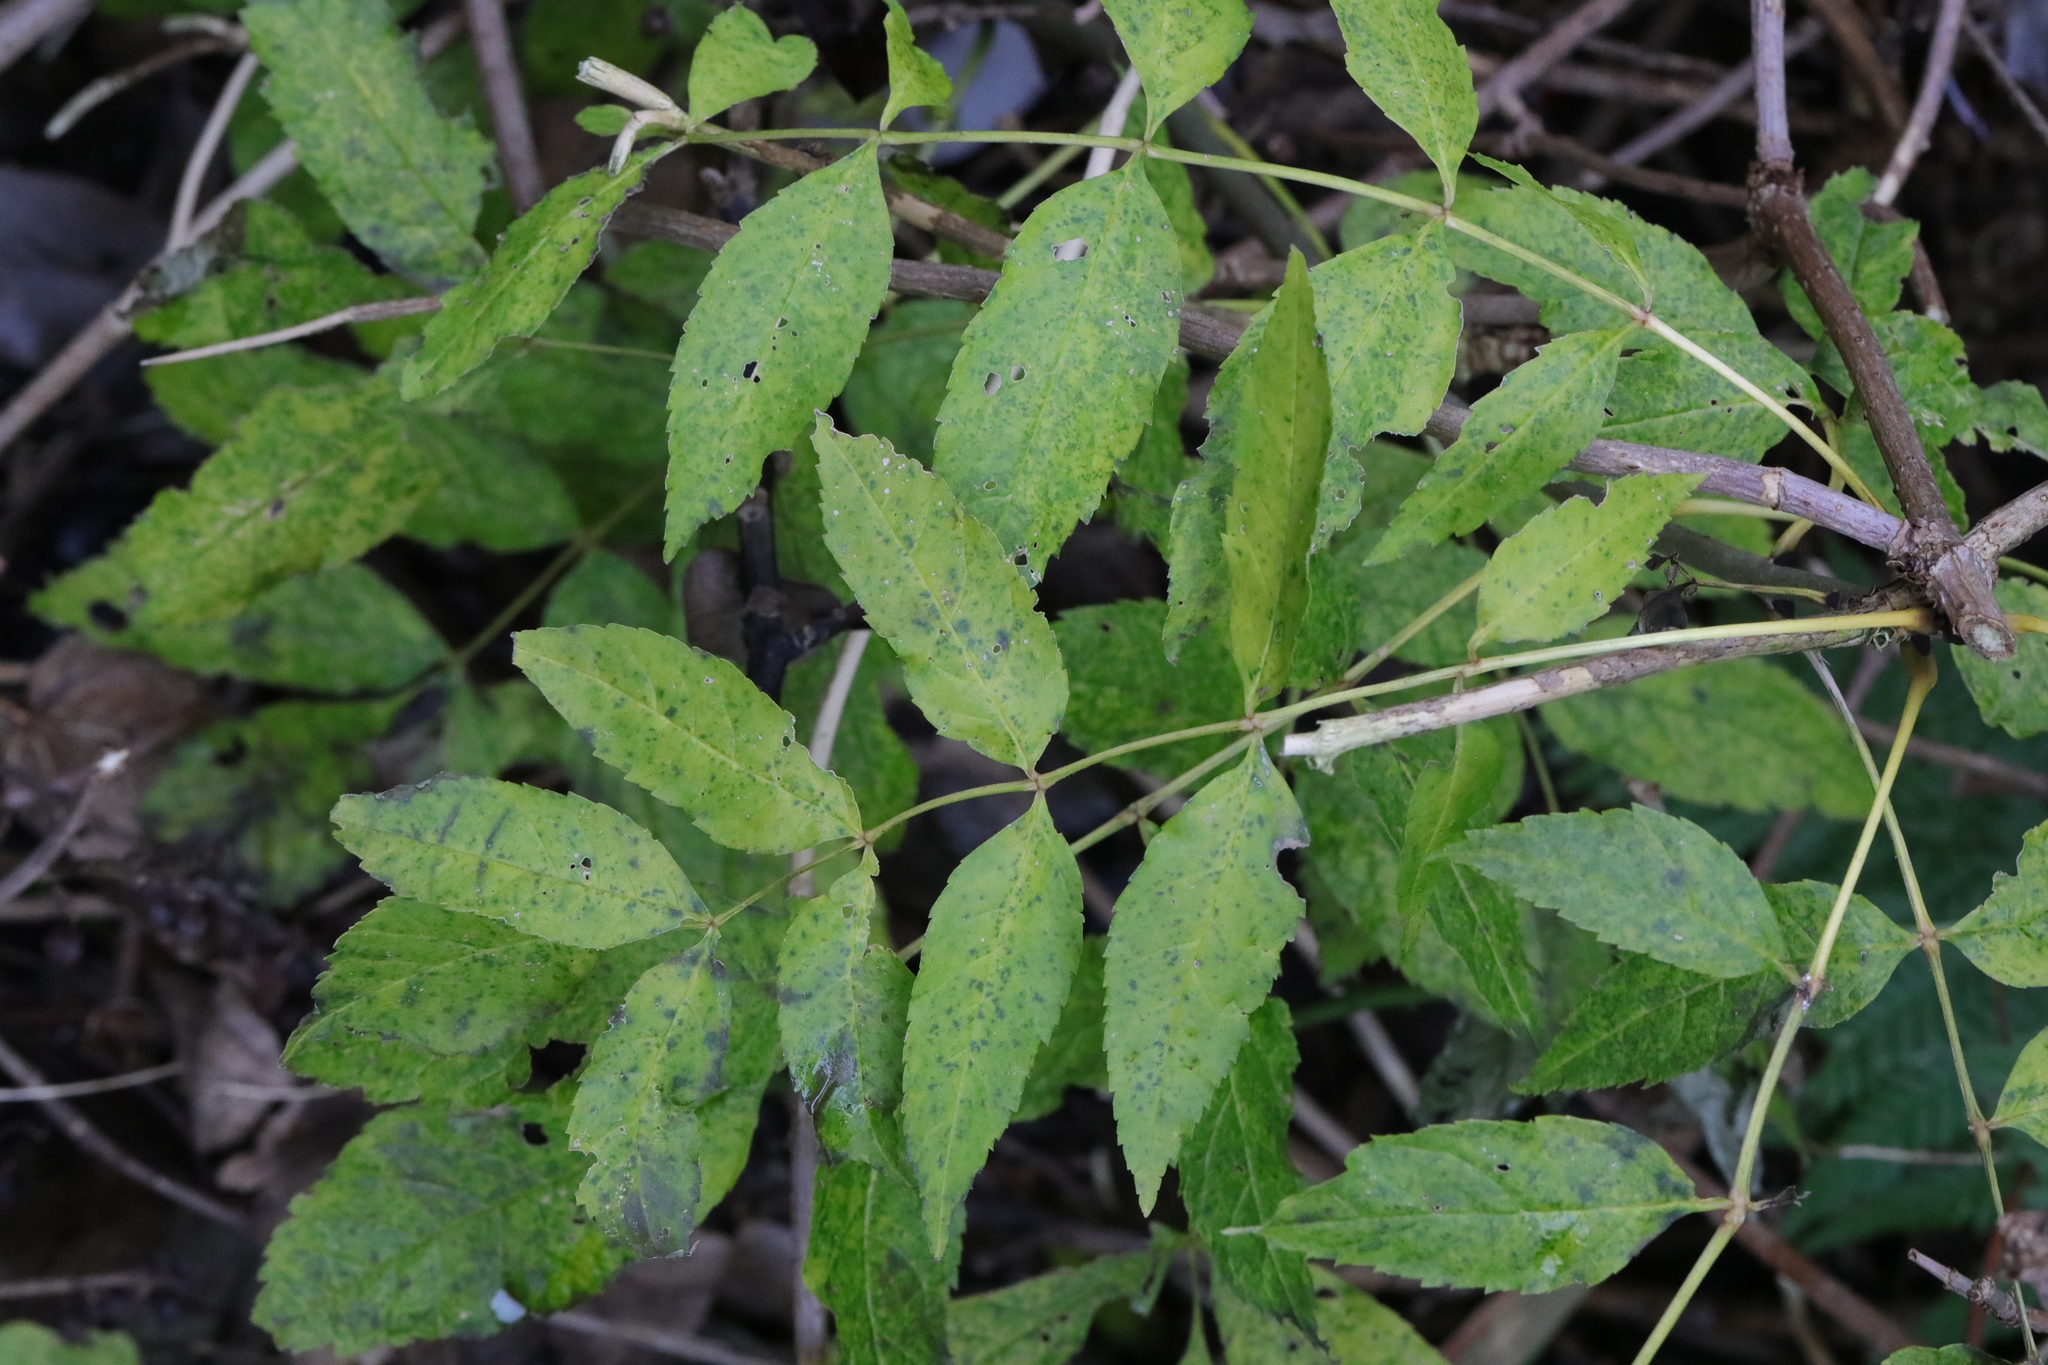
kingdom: Plantae
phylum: Tracheophyta
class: Magnoliopsida
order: Lamiales
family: Oleaceae
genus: Fraxinus
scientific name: Fraxinus excelsior
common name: European ash
